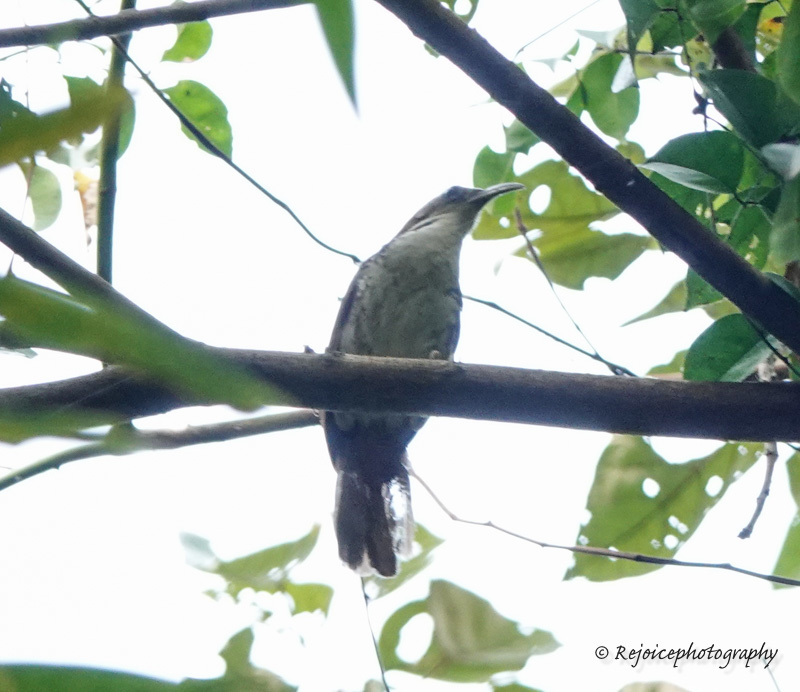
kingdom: Animalia
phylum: Chordata
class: Aves
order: Passeriformes
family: Timaliidae
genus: Pomatorhinus
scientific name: Pomatorhinus hypoleucos
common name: Large scimitar babbler
